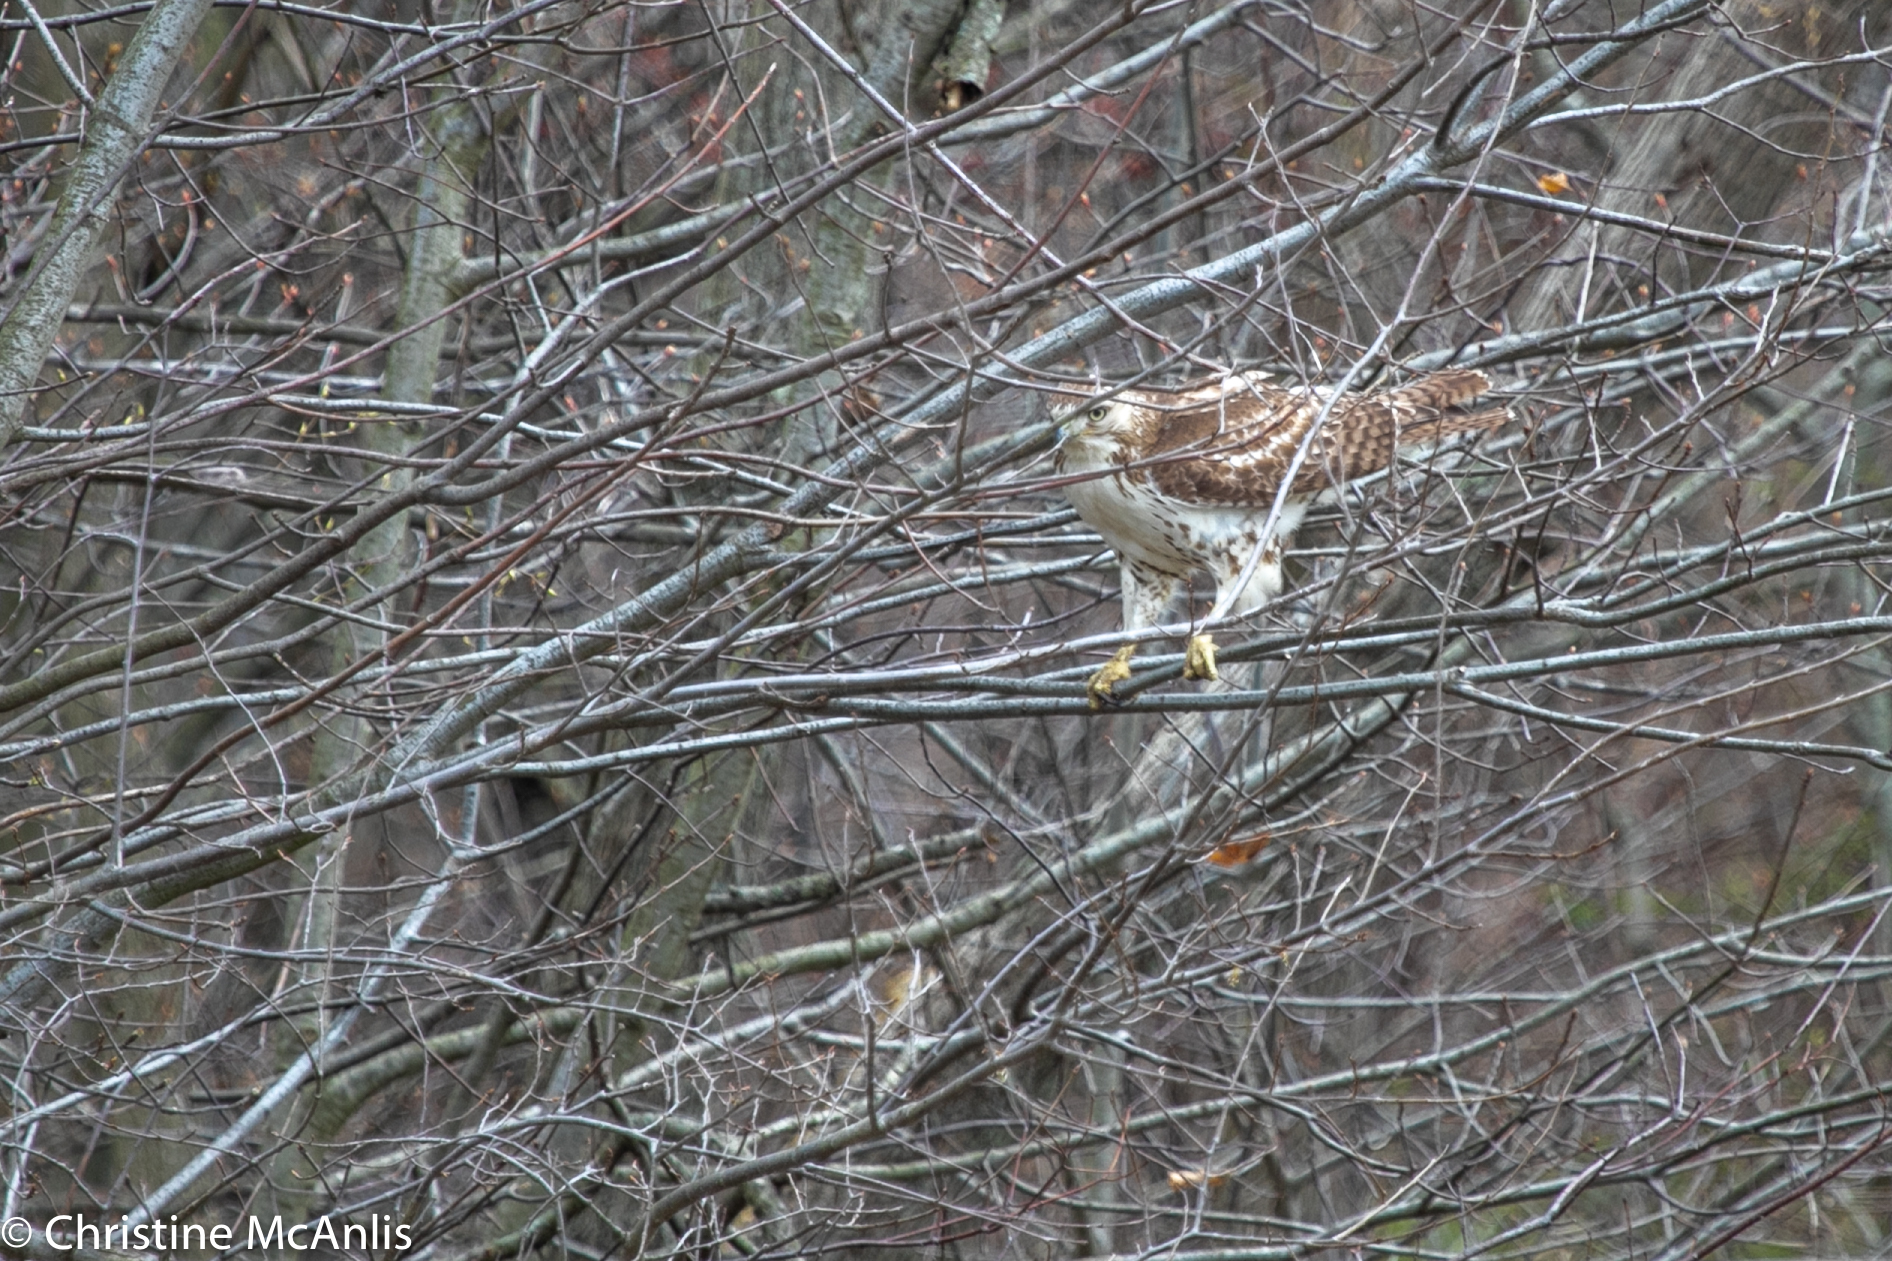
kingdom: Animalia
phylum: Chordata
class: Aves
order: Accipitriformes
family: Accipitridae
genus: Buteo
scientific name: Buteo jamaicensis
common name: Red-tailed hawk
